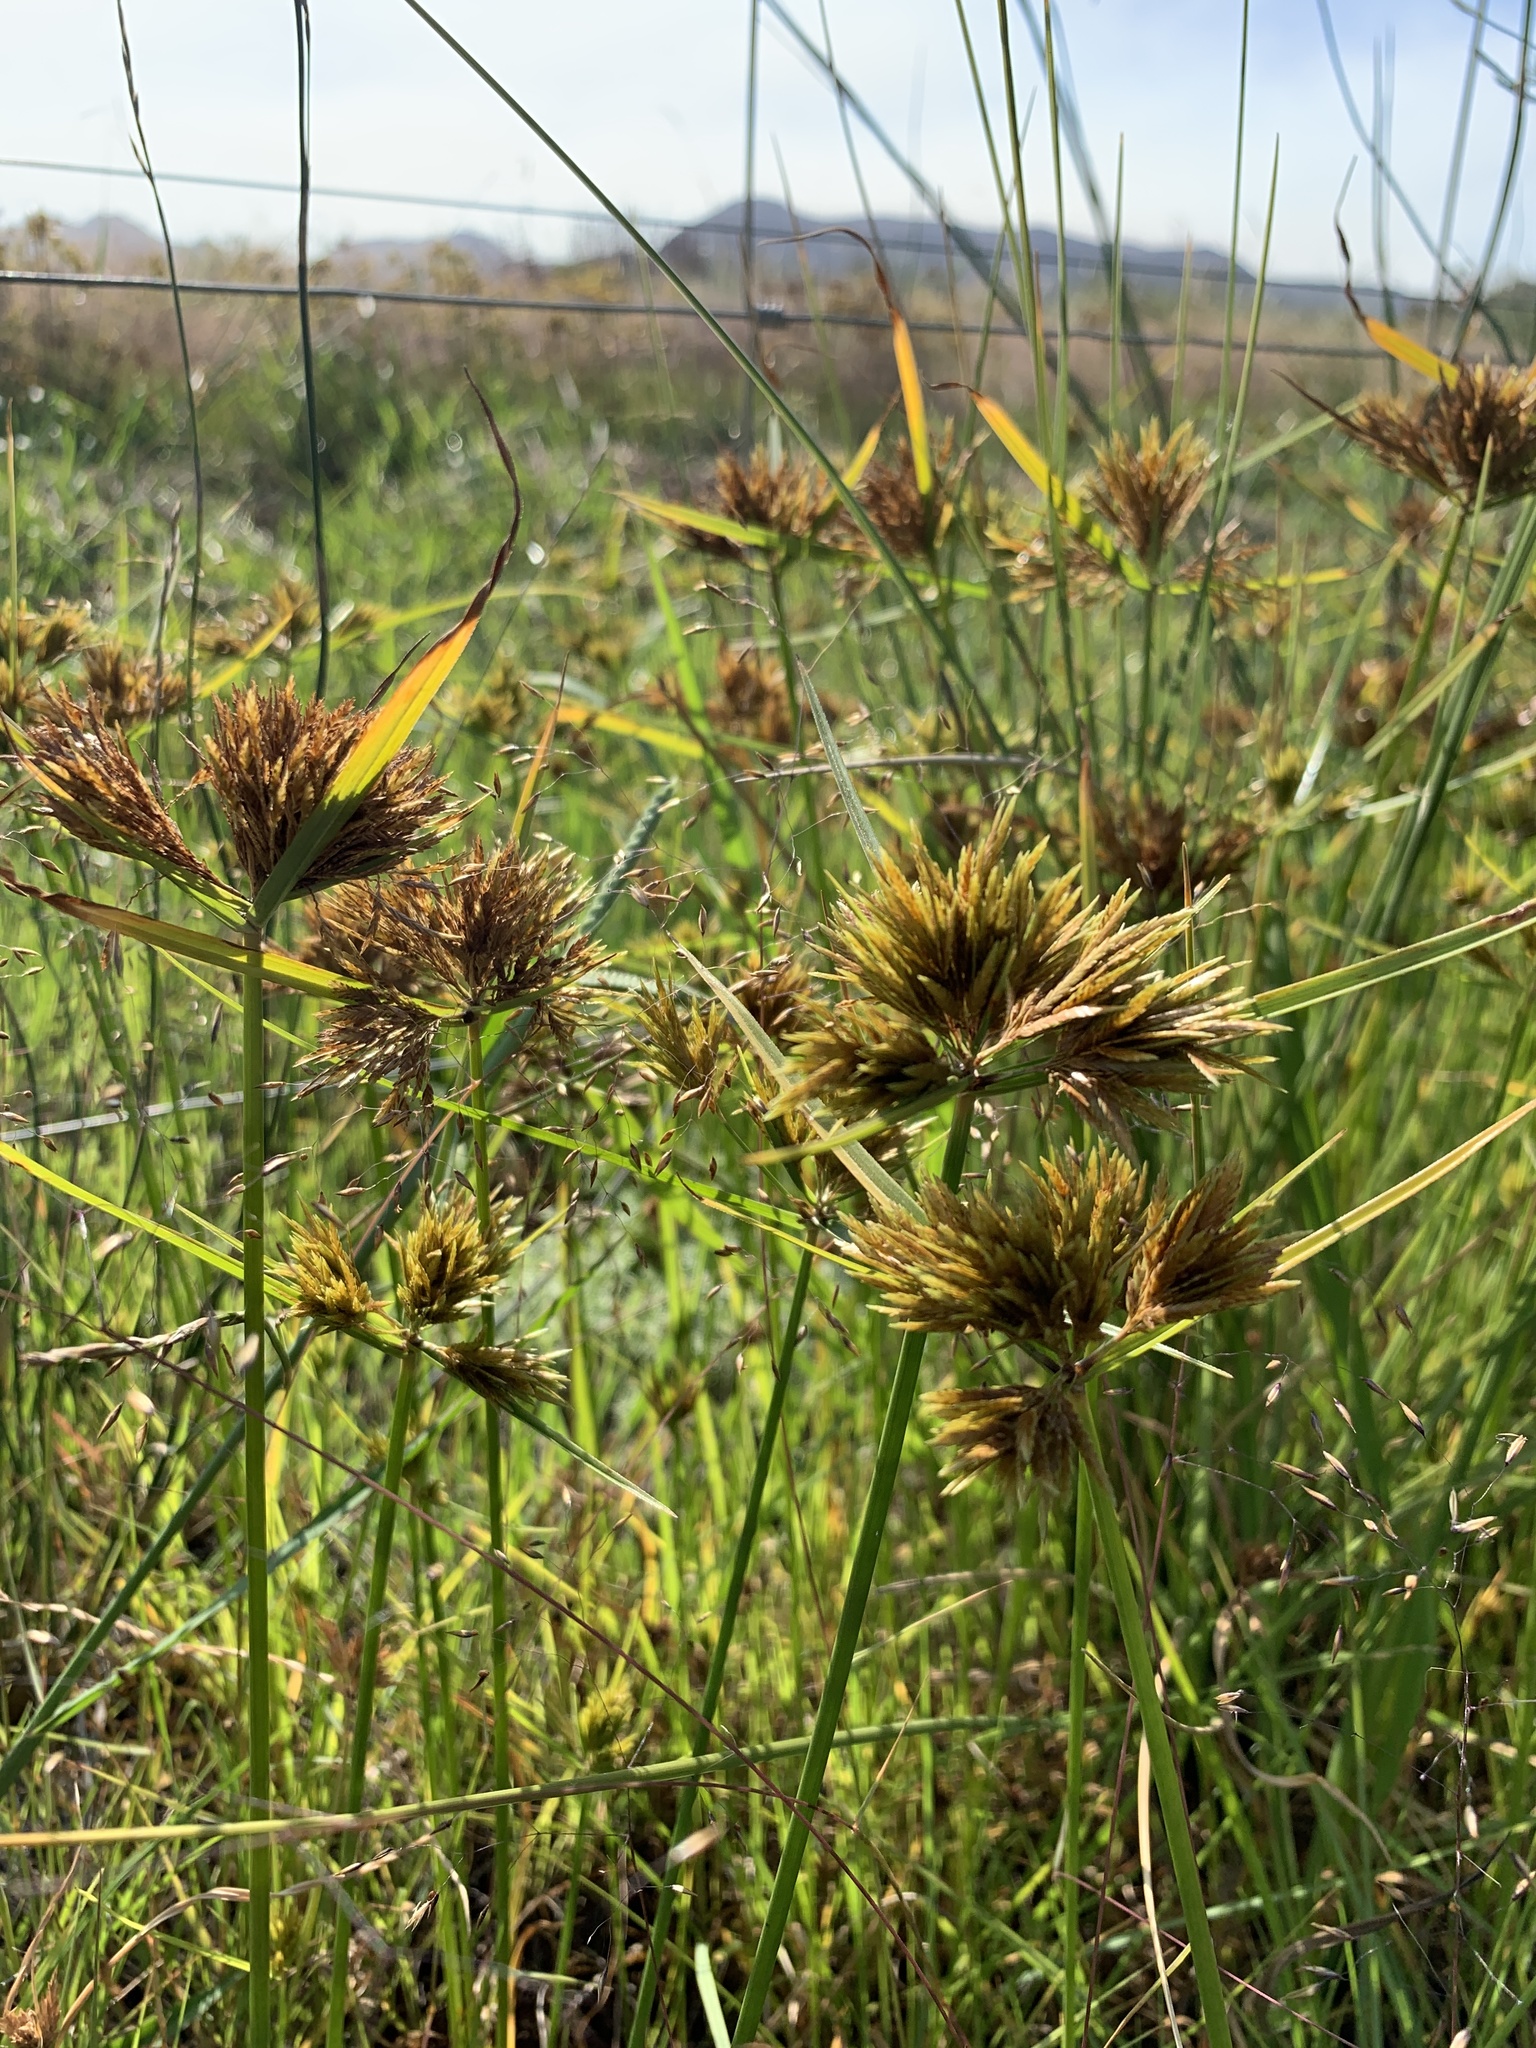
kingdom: Plantae
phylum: Tracheophyta
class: Liliopsida
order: Poales
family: Cyperaceae
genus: Cyperus
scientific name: Cyperus polystachyos
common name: Bunchy flat sedge
